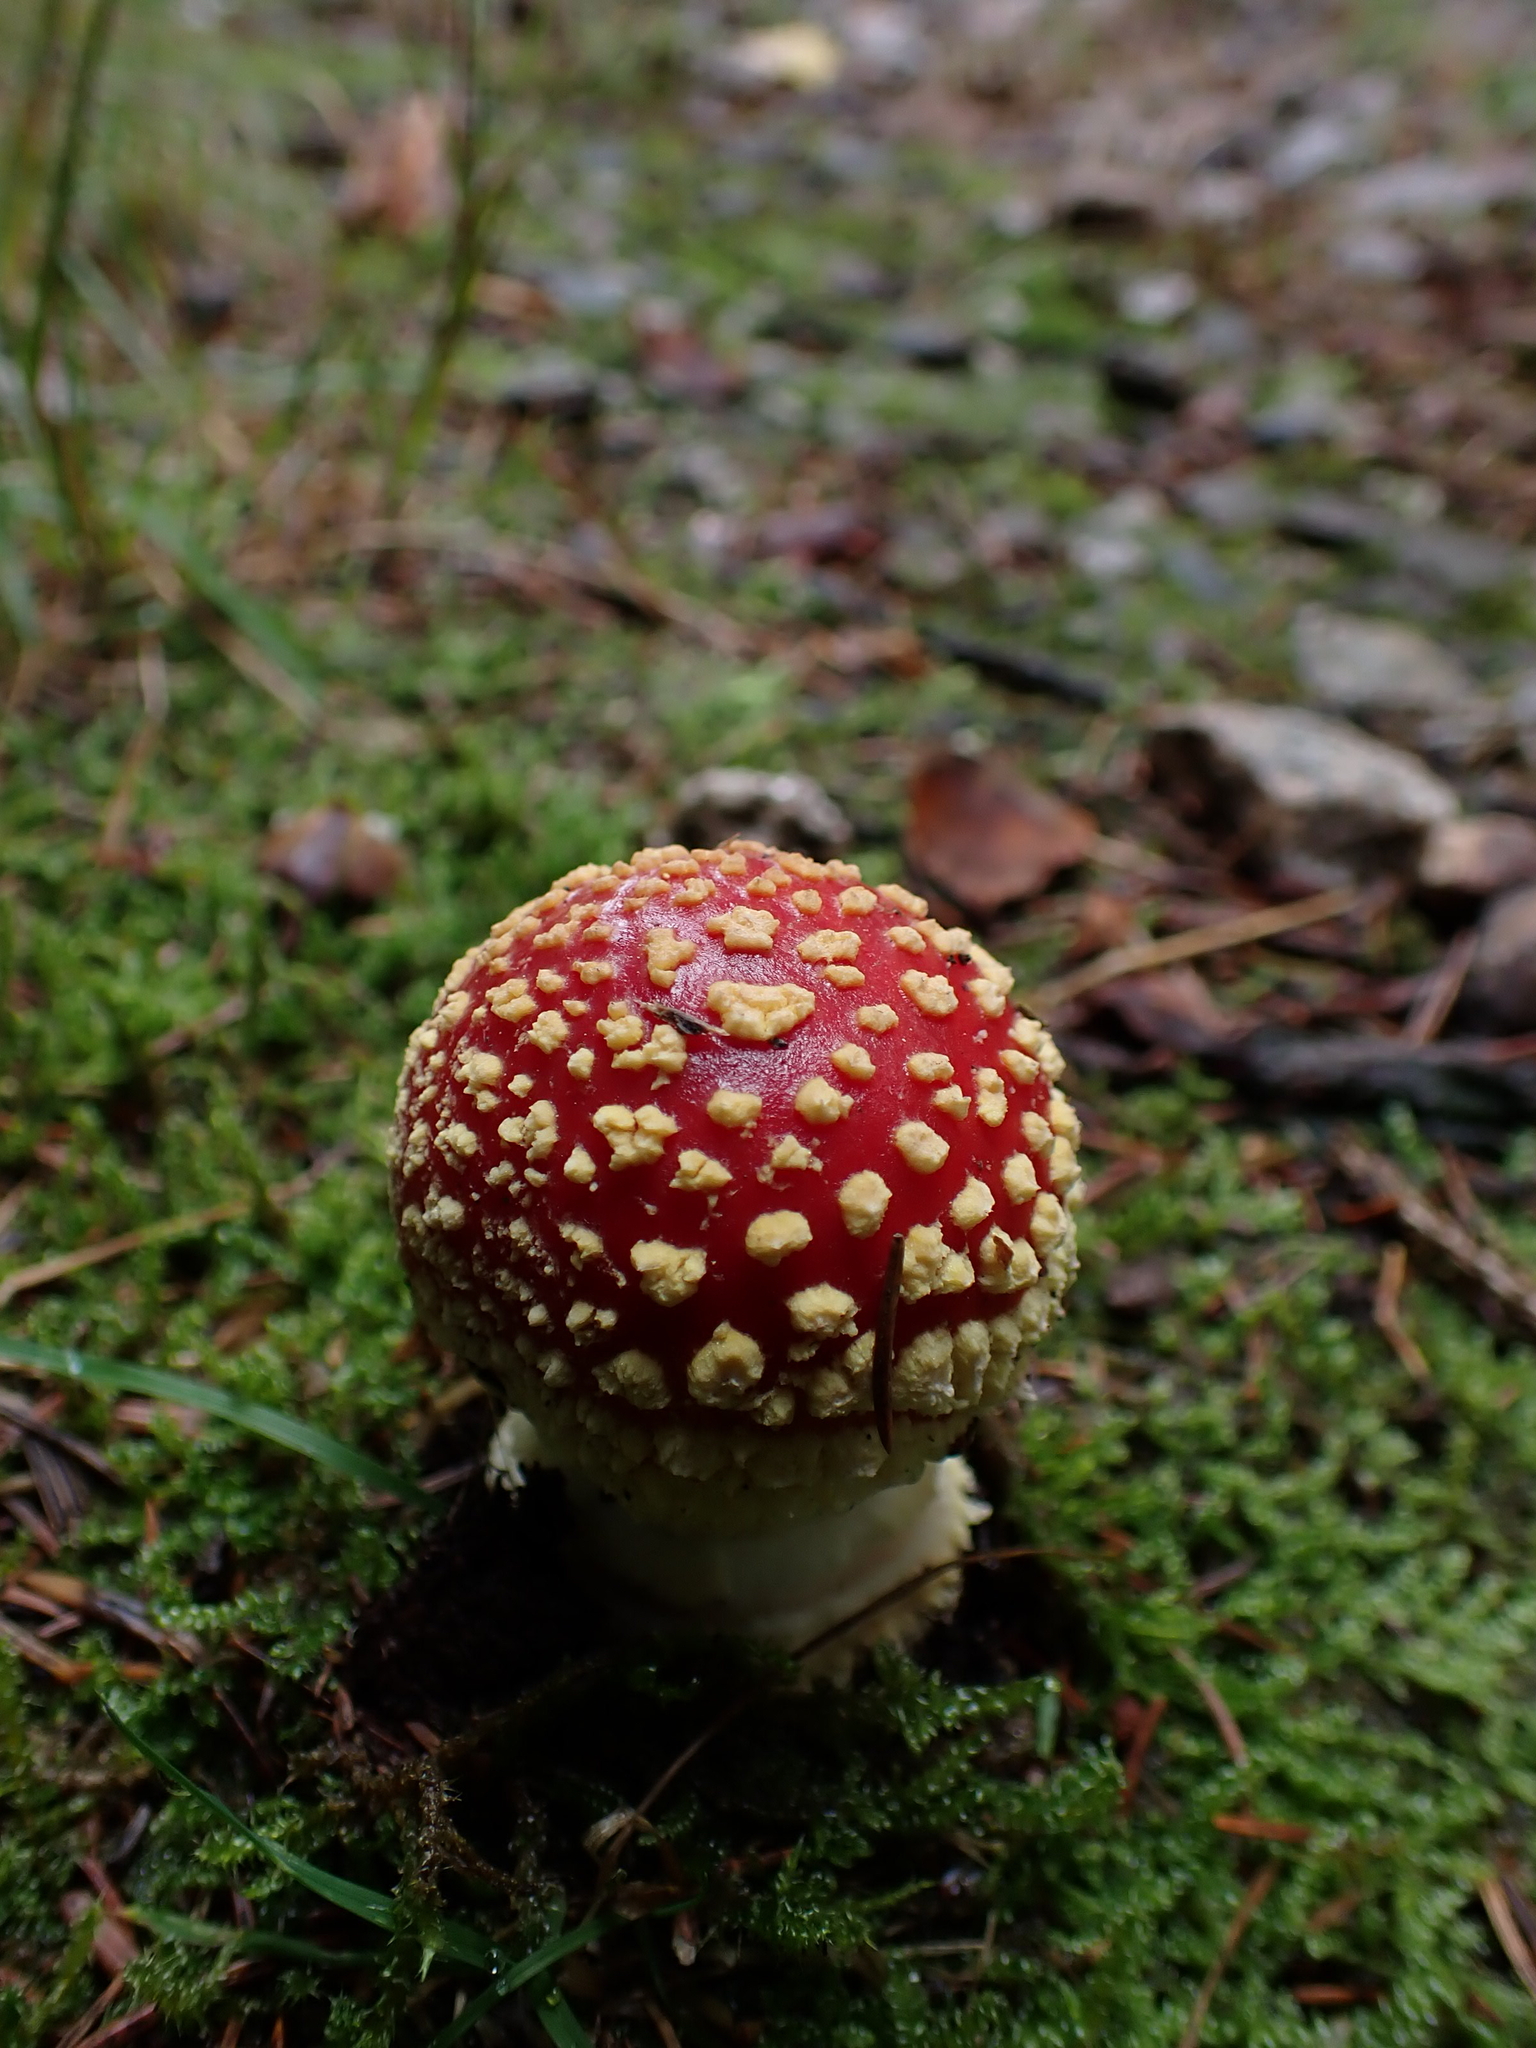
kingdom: Fungi
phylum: Basidiomycota
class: Agaricomycetes
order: Agaricales
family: Amanitaceae
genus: Amanita
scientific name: Amanita muscaria
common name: Fly agaric
